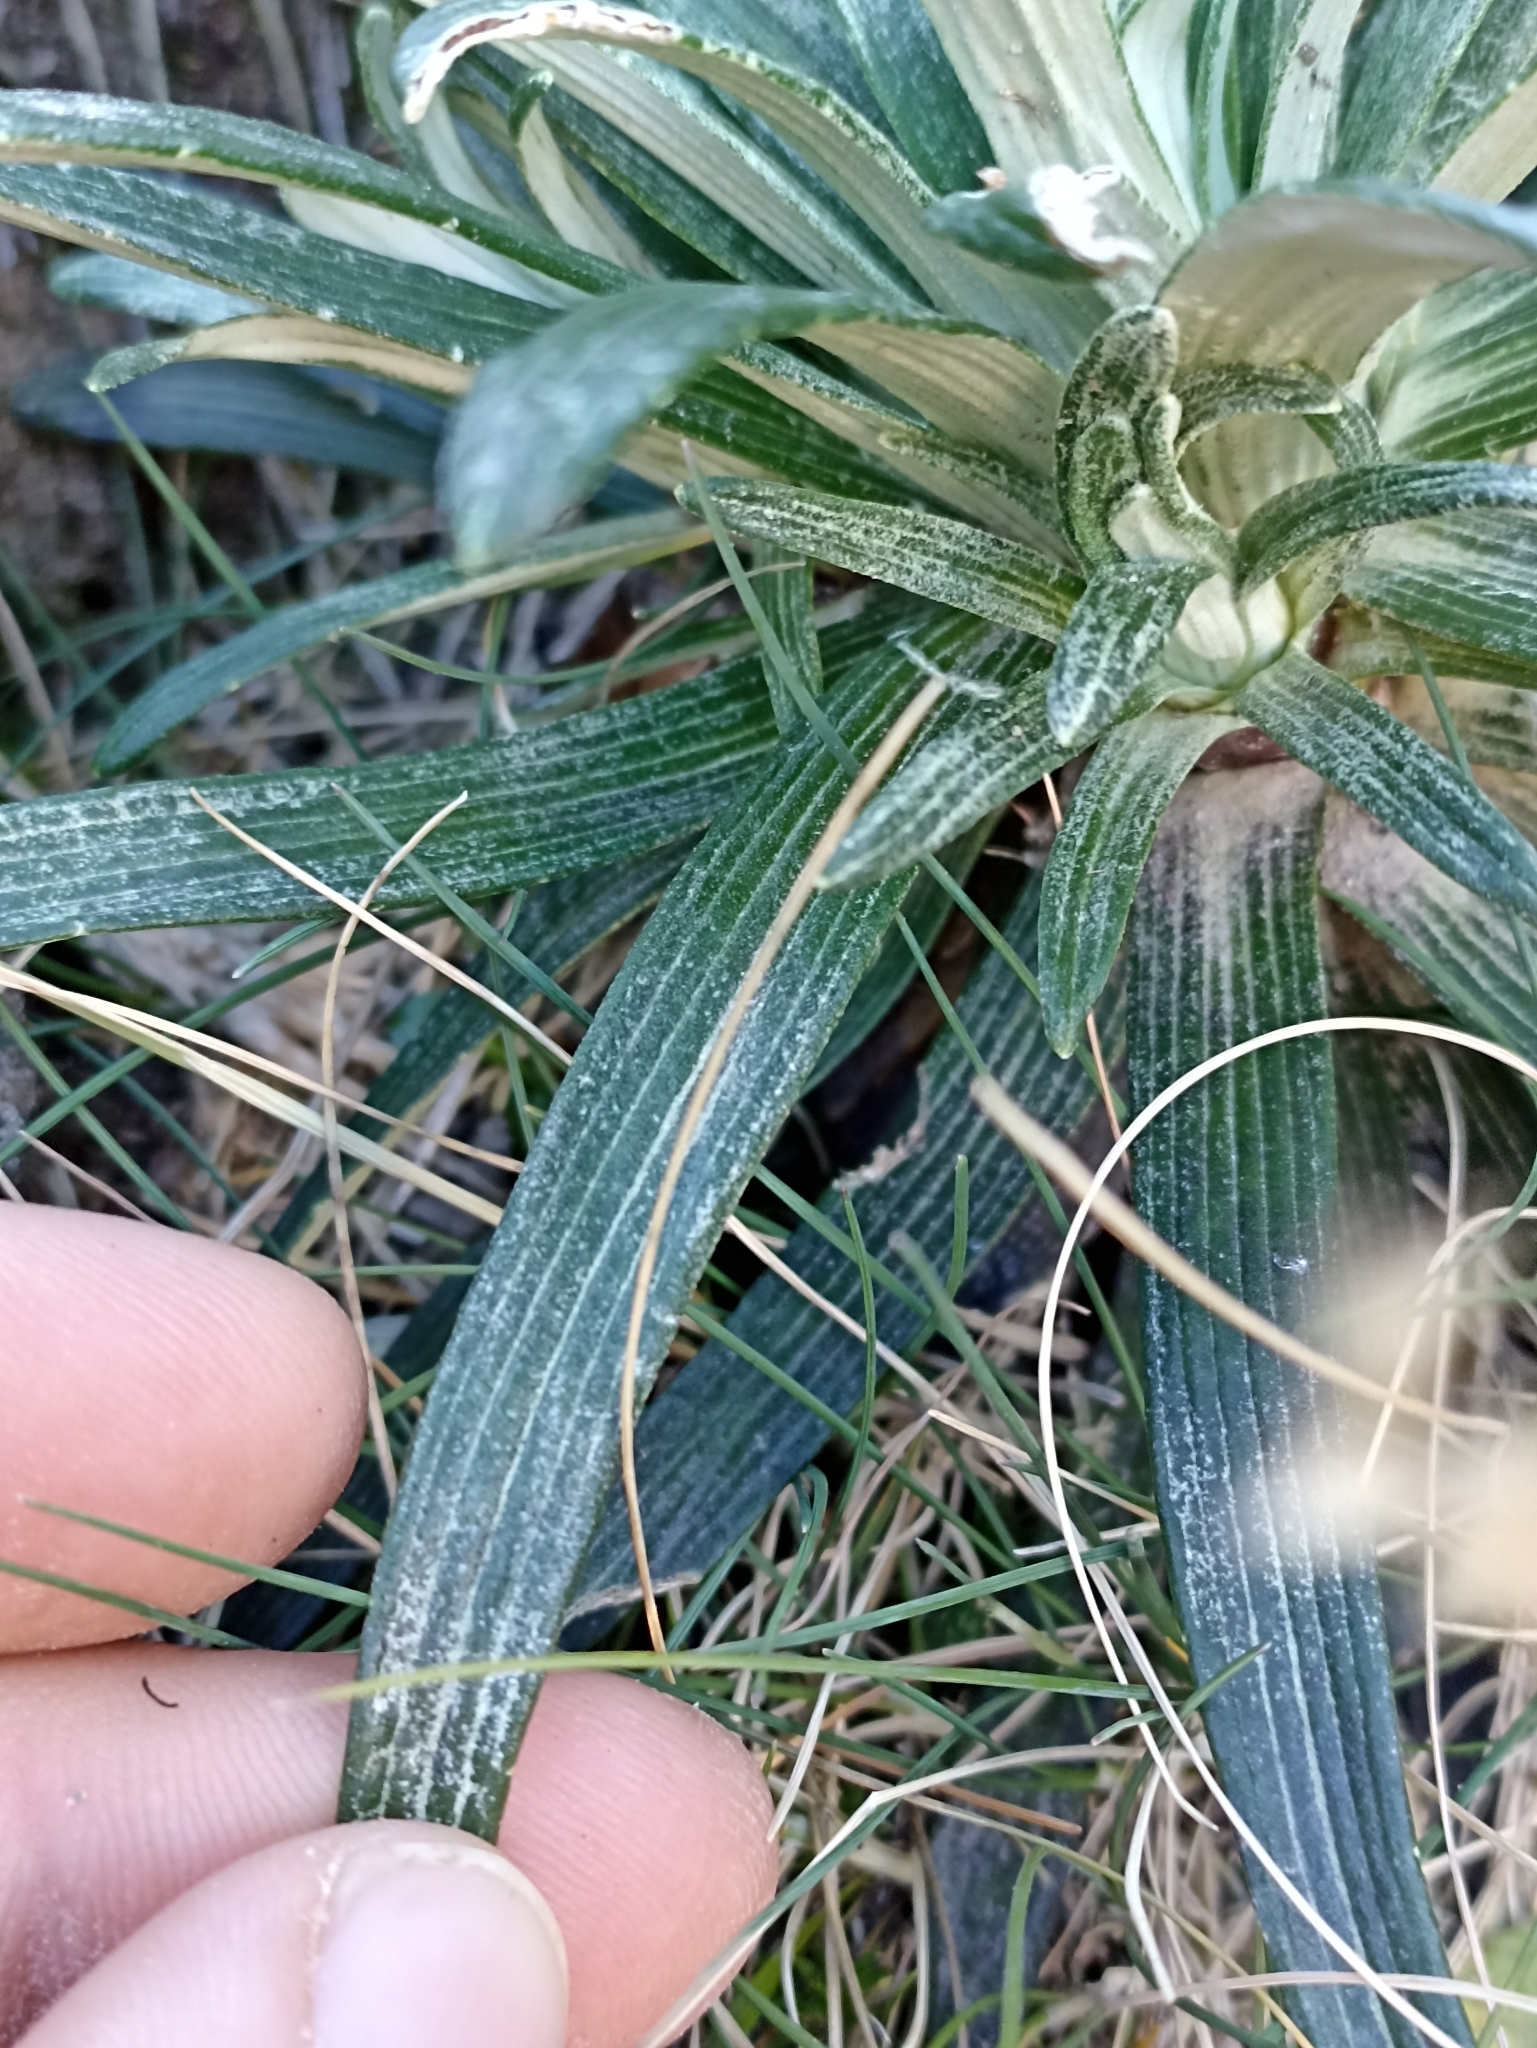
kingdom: Plantae
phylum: Tracheophyta
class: Magnoliopsida
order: Asterales
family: Asteraceae
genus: Celmisia
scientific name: Celmisia viscosa
